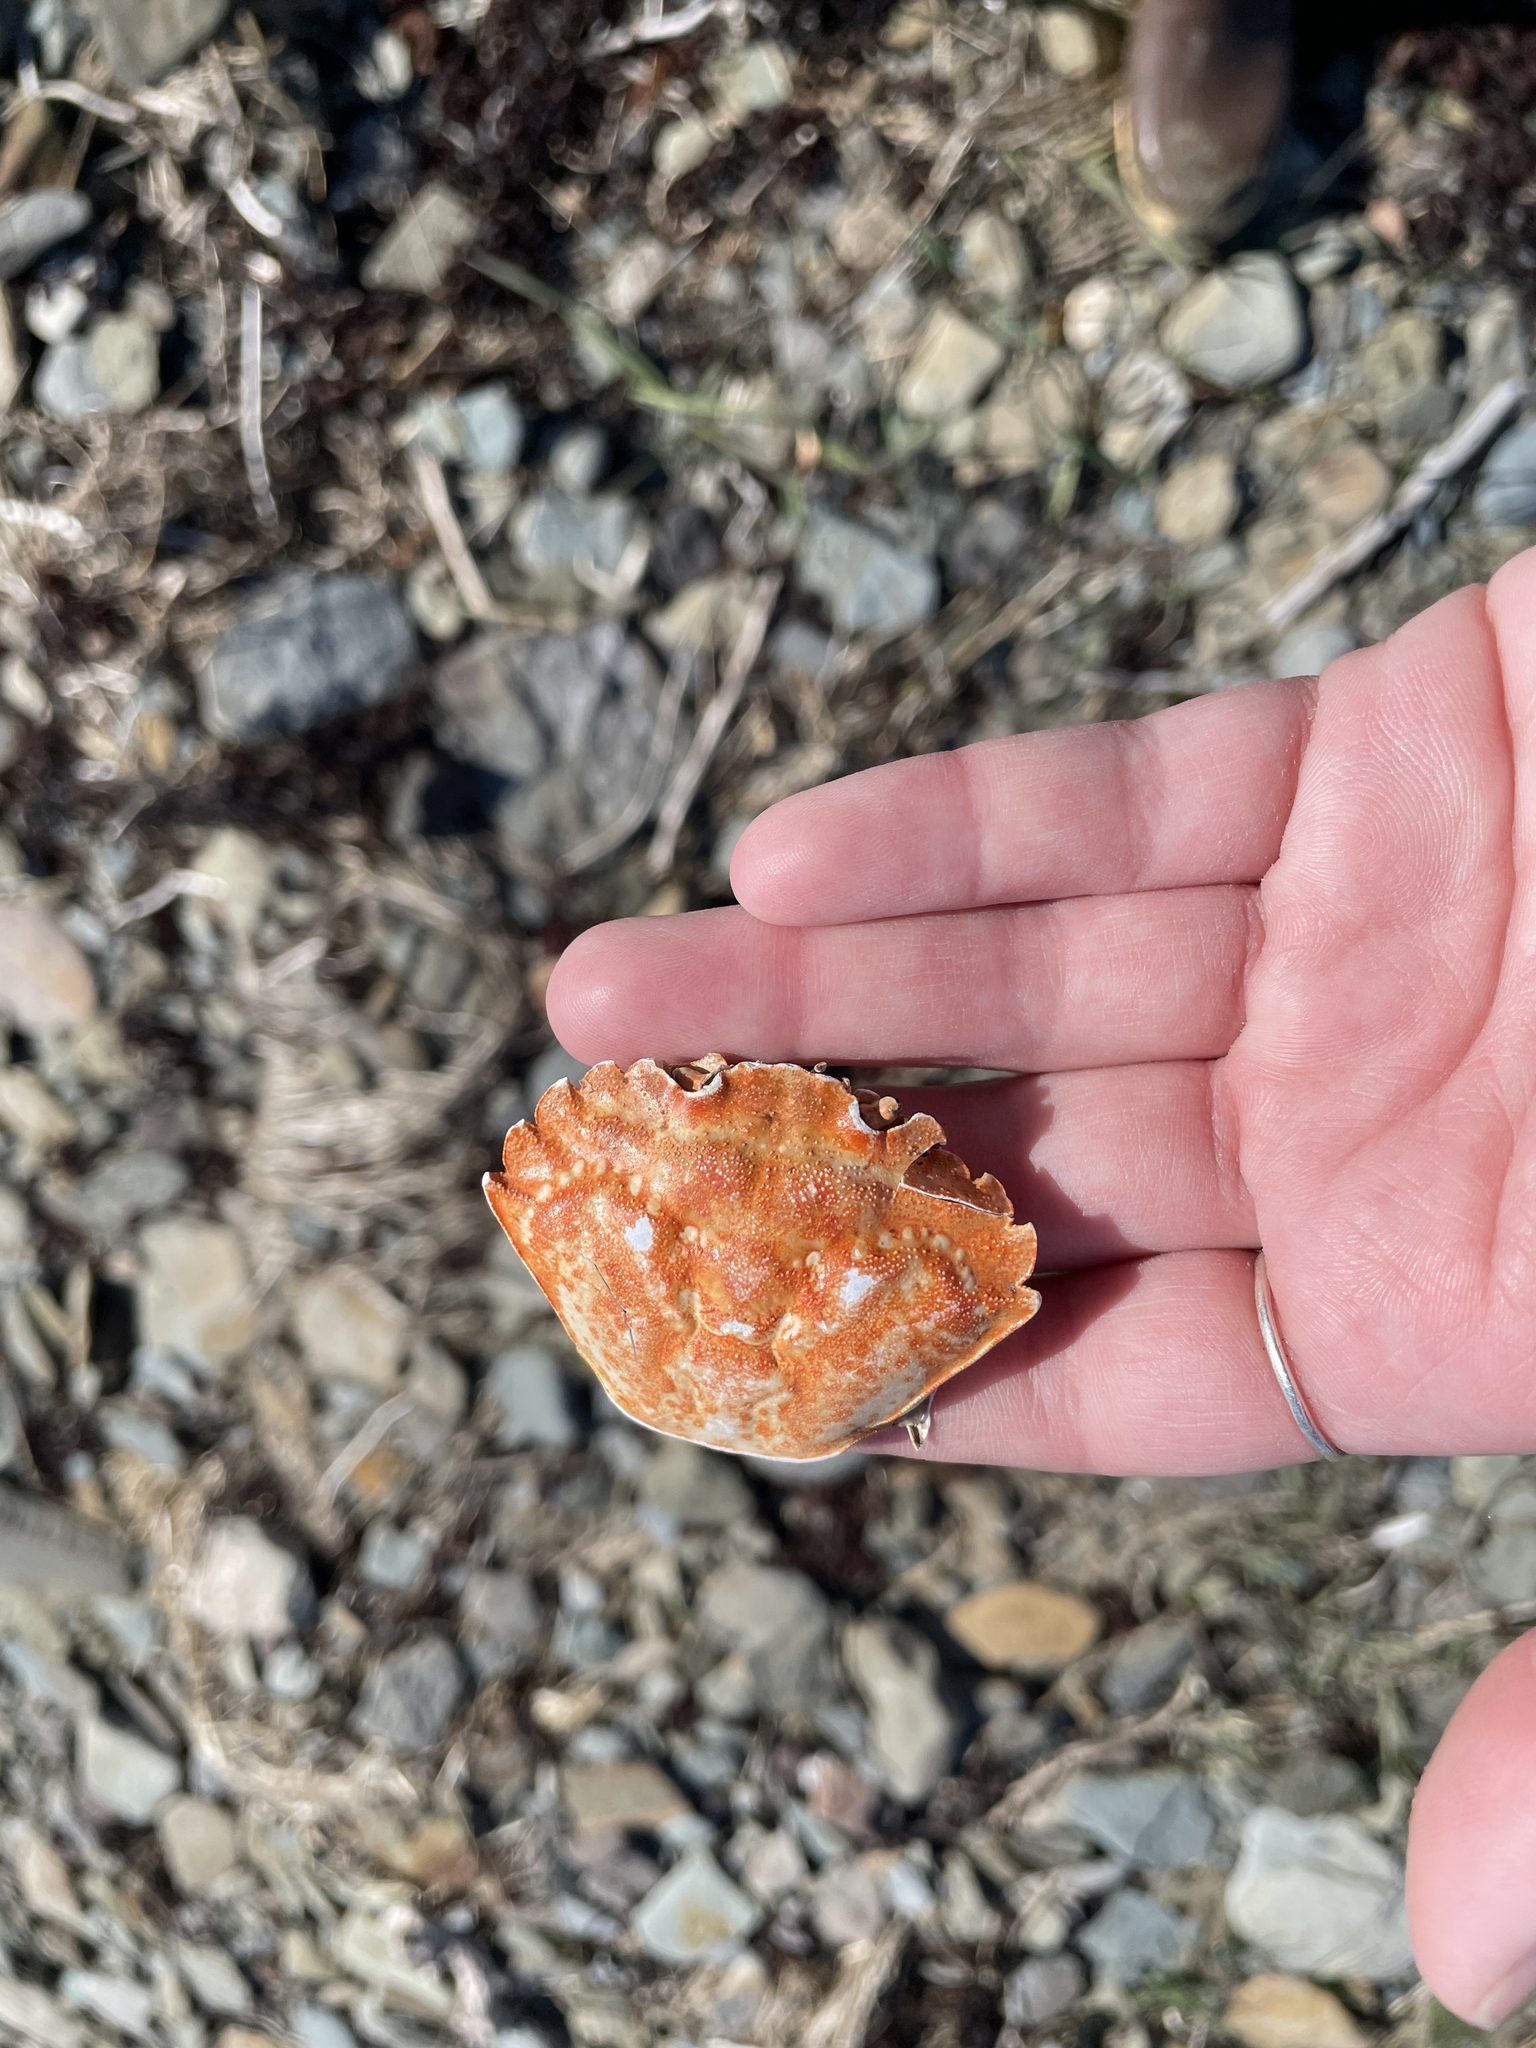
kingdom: Animalia
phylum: Arthropoda
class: Malacostraca
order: Decapoda
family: Carcinidae
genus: Carcinus
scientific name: Carcinus maenas
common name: European green crab
